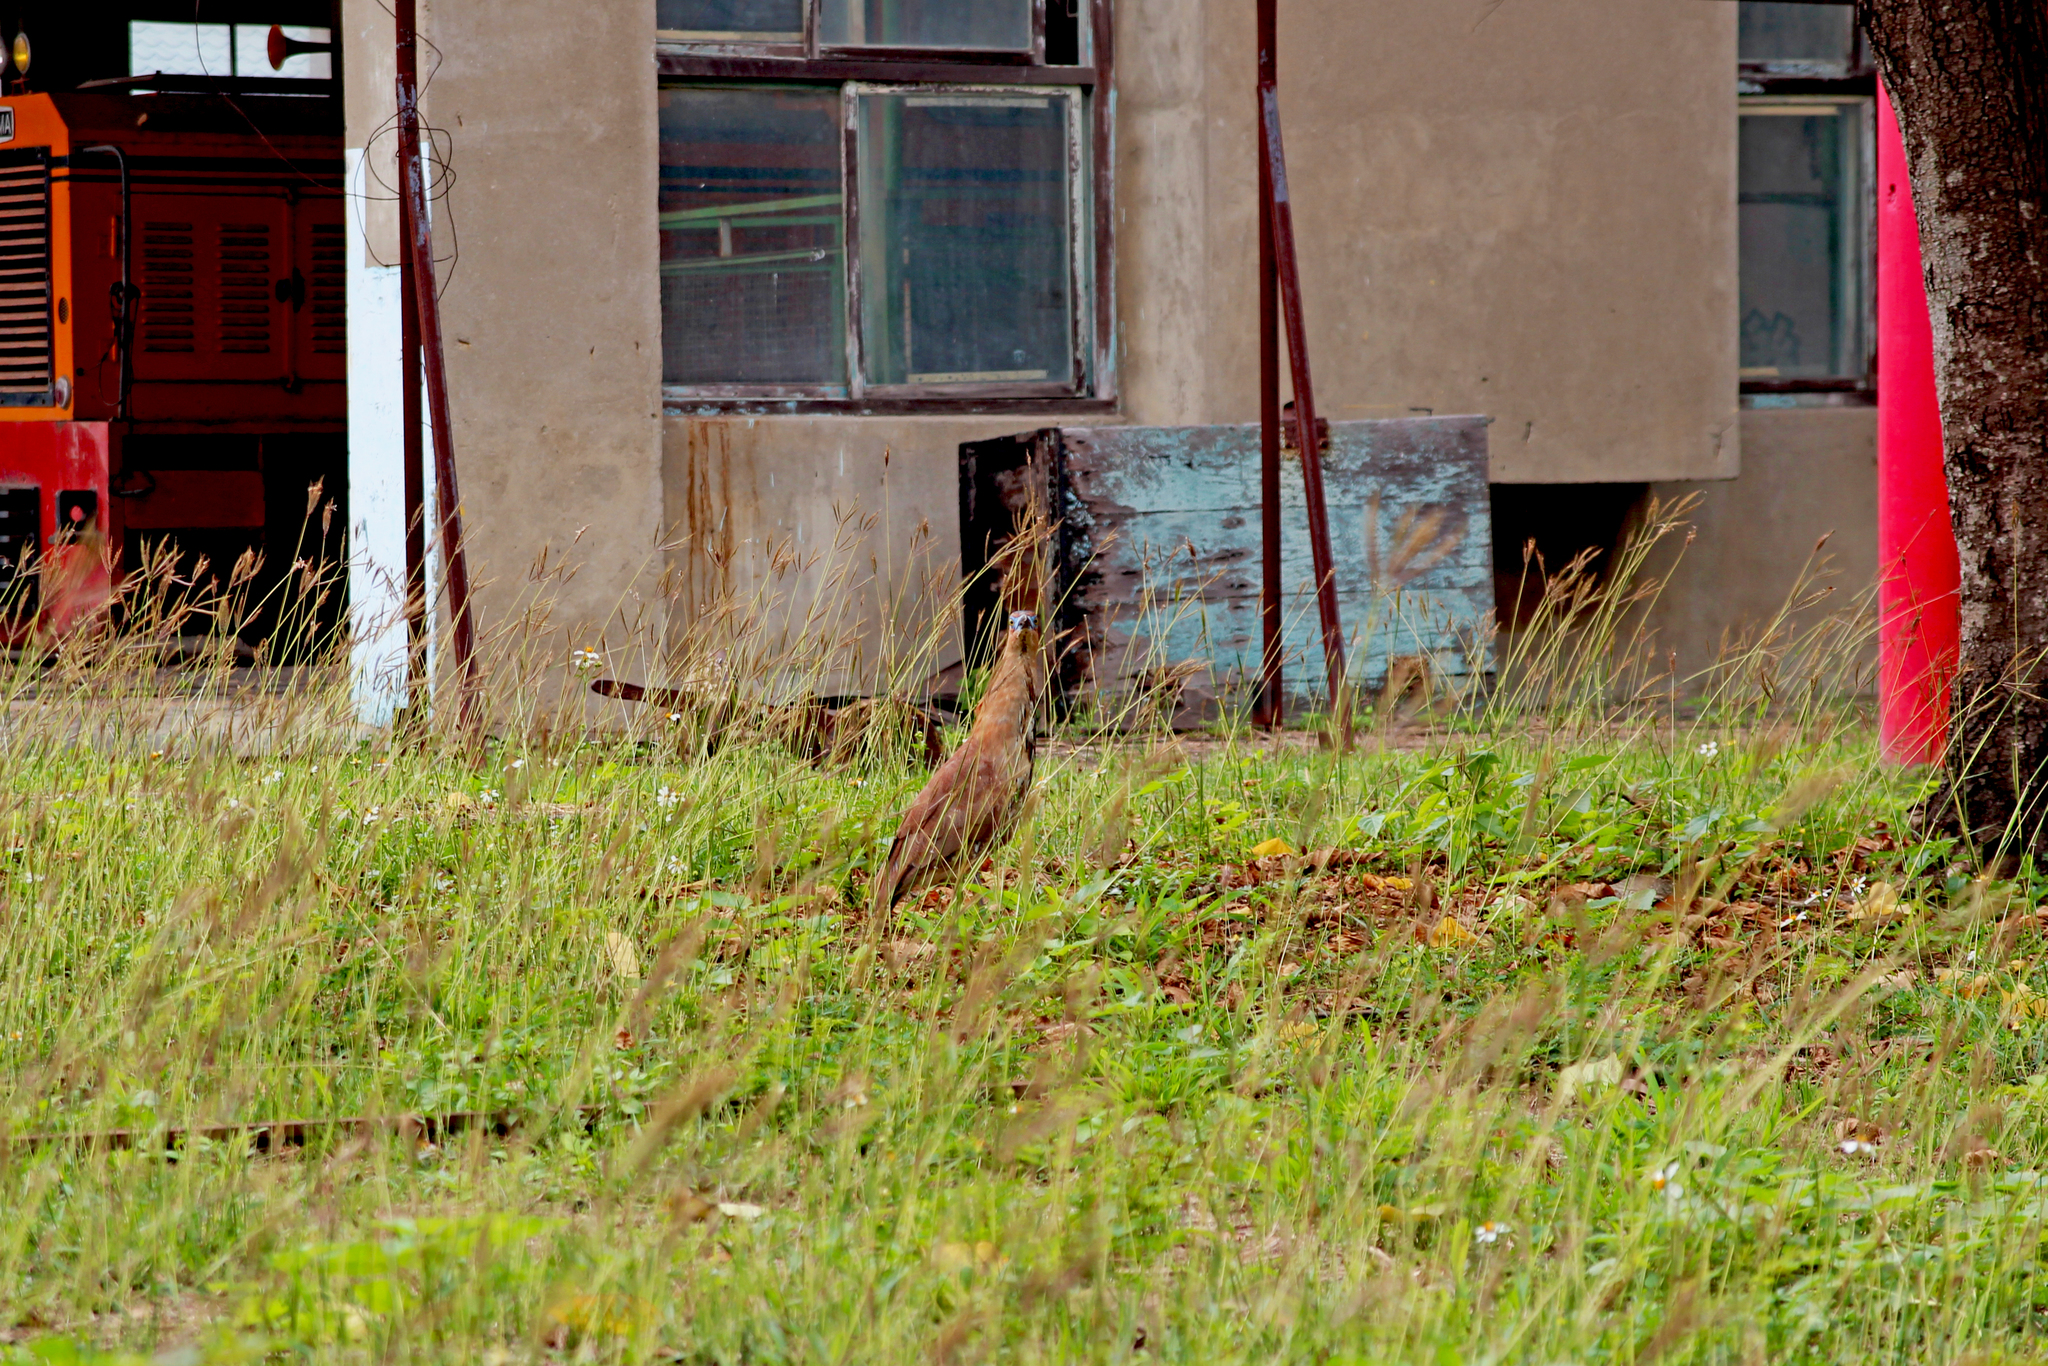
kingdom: Animalia
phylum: Chordata
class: Aves
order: Pelecaniformes
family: Ardeidae
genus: Gorsachius
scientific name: Gorsachius melanolophus
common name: Malayan night heron
